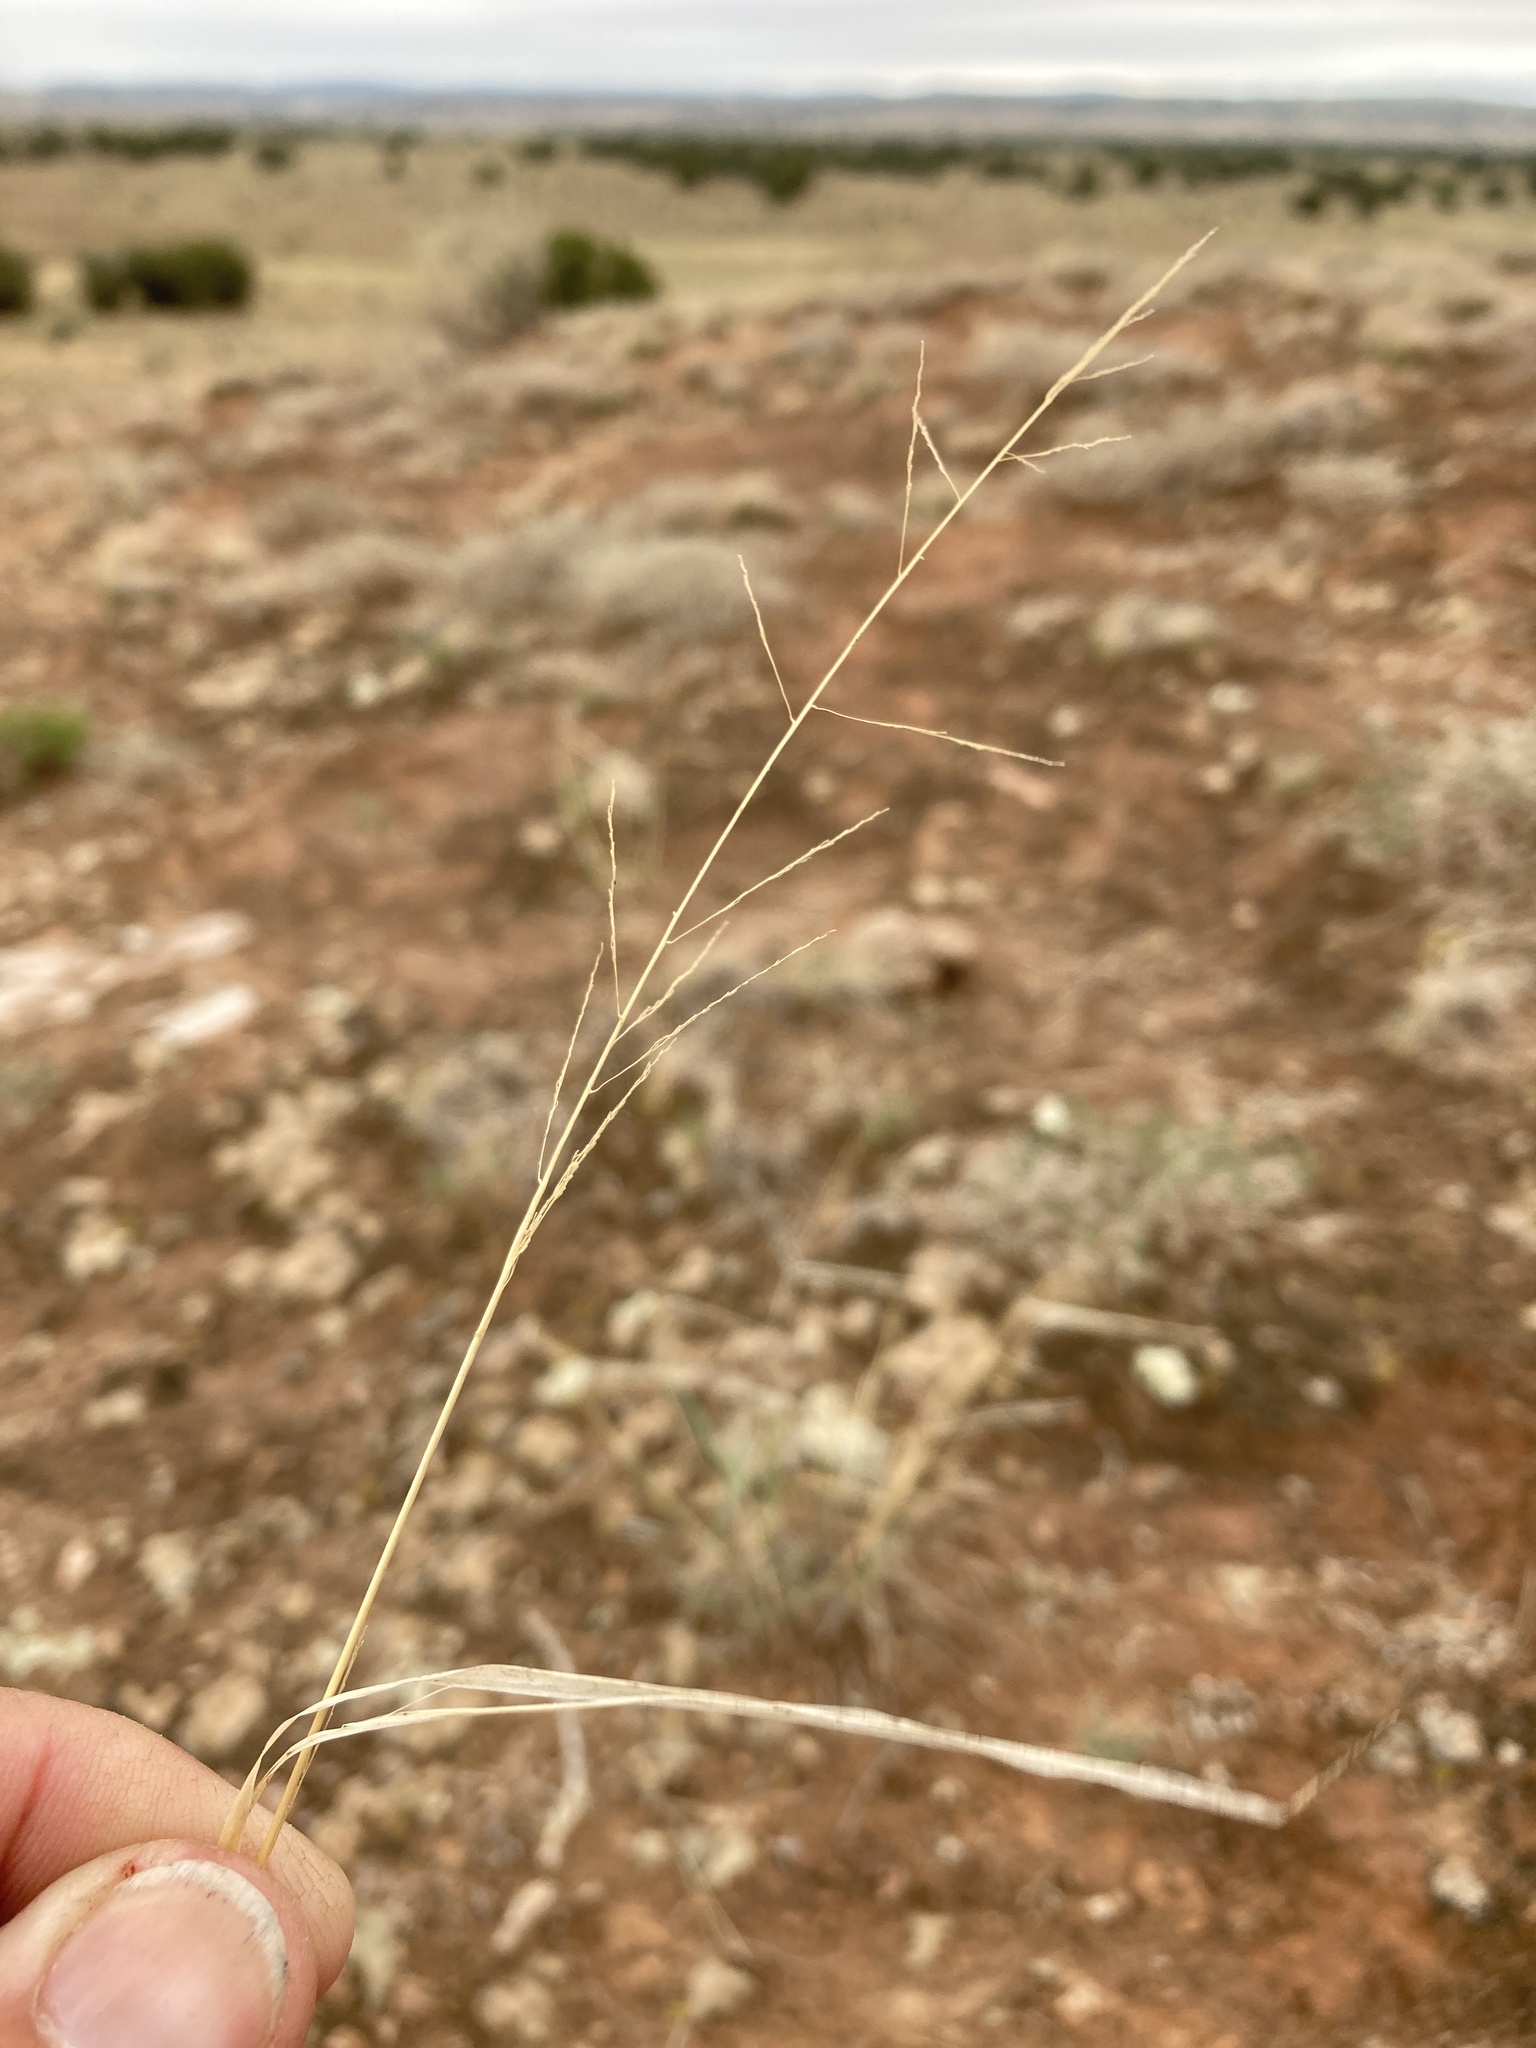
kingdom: Plantae
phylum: Tracheophyta
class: Liliopsida
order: Poales
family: Poaceae
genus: Sporobolus
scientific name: Sporobolus cryptandrus
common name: Sand dropseed
